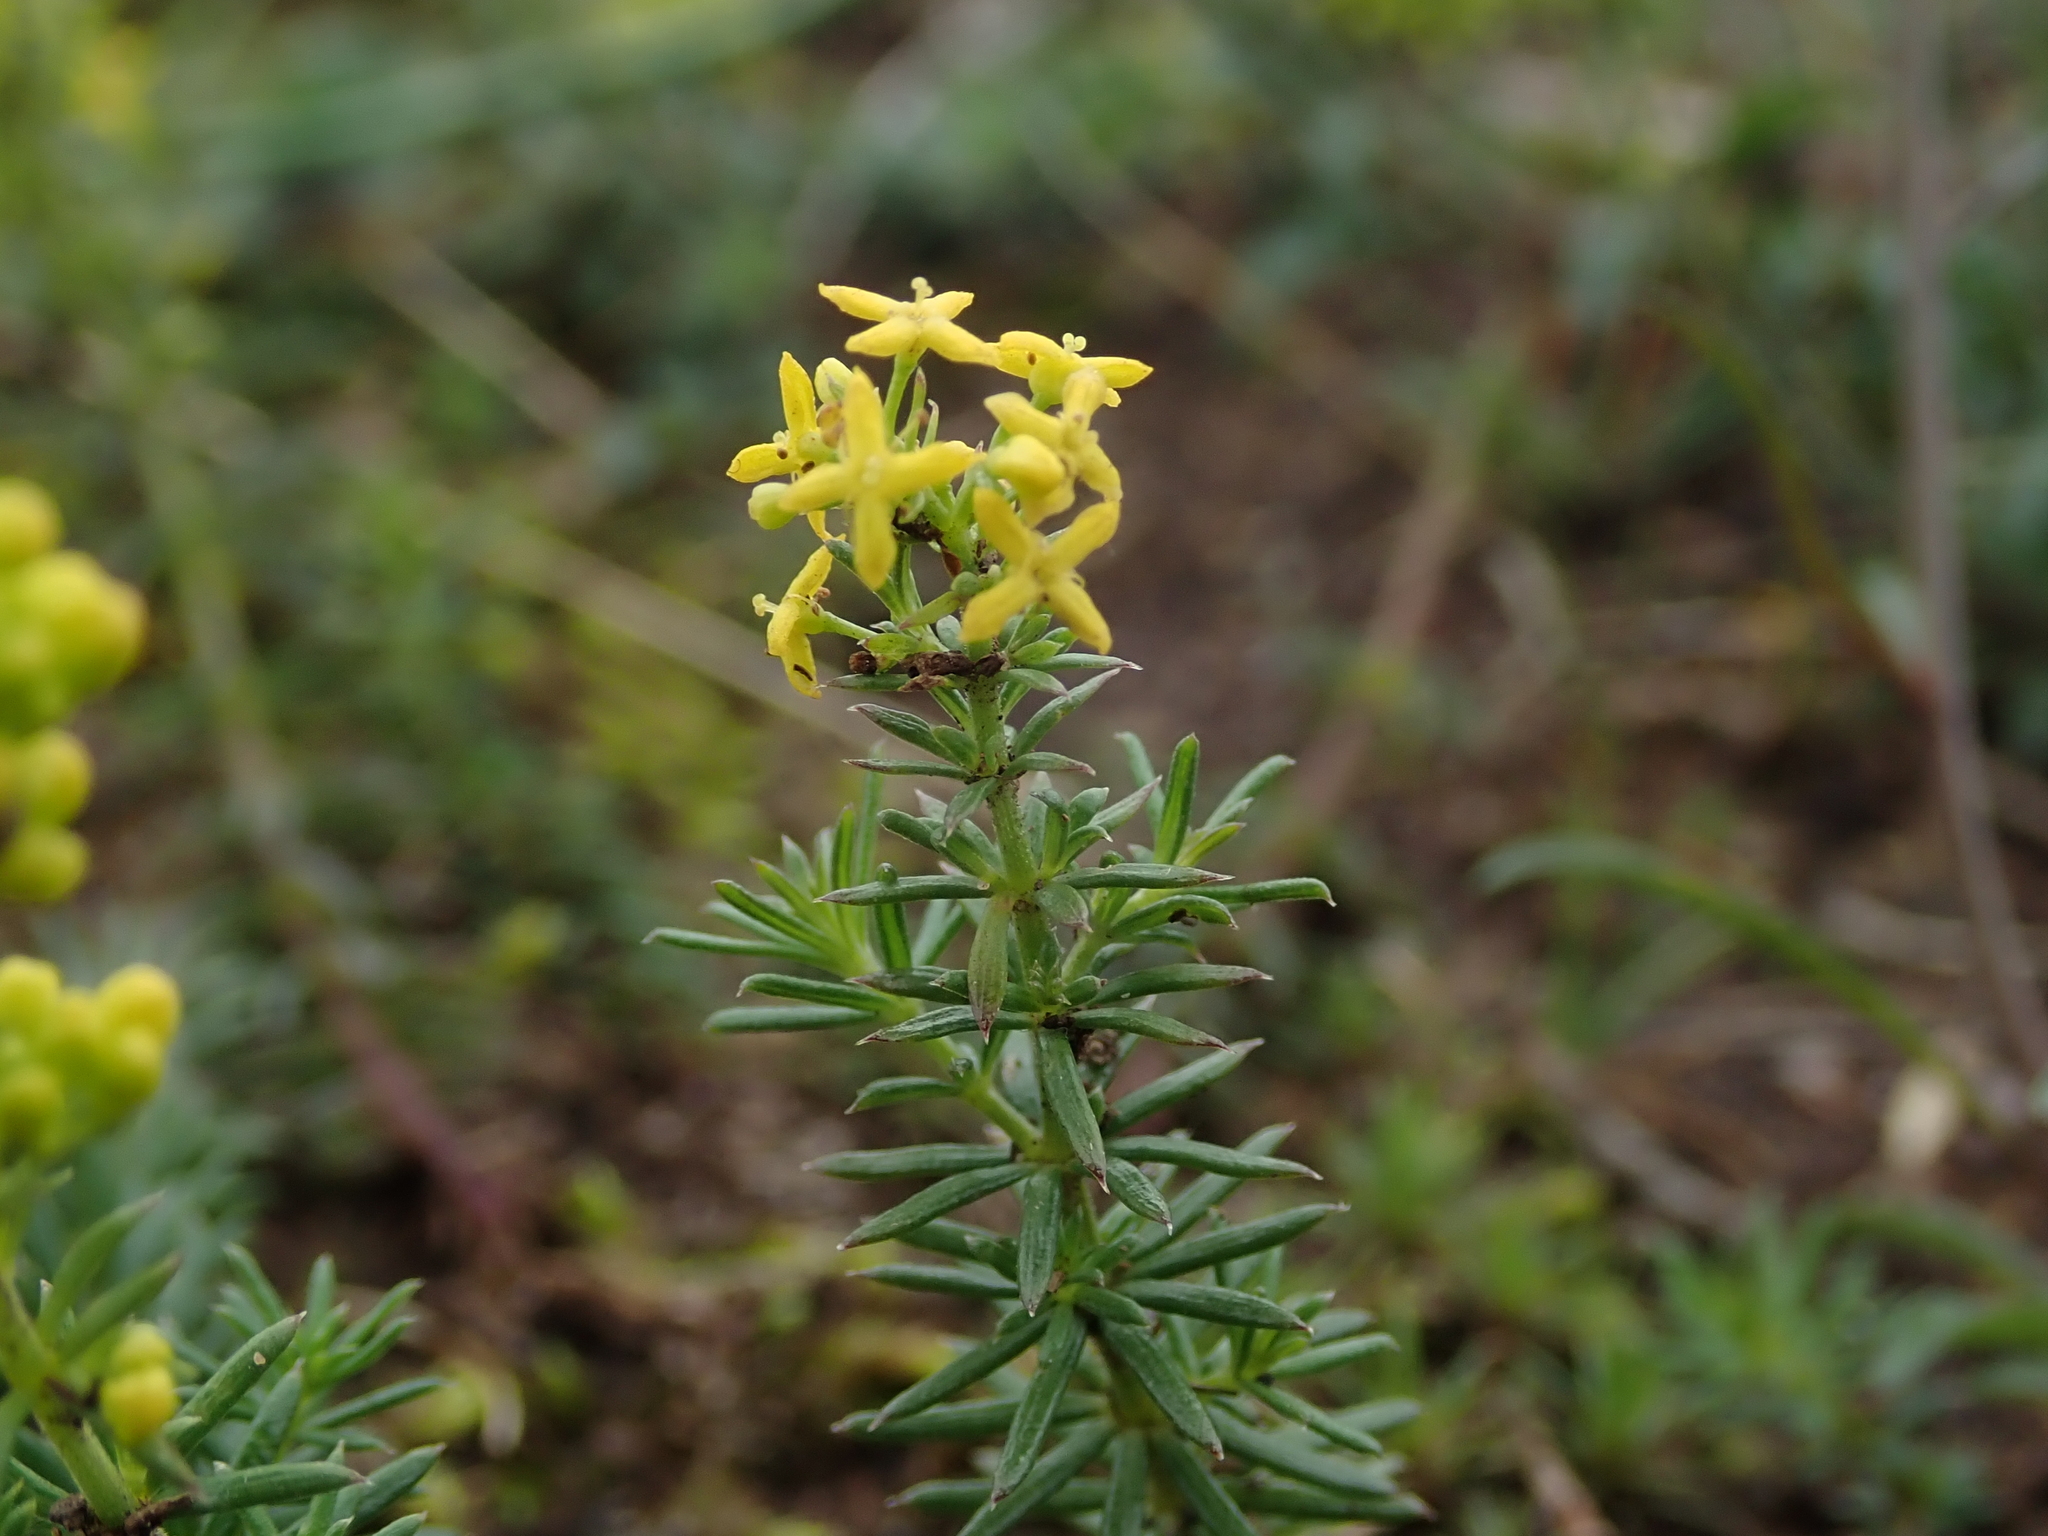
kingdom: Plantae
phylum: Tracheophyta
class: Magnoliopsida
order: Gentianales
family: Rubiaceae
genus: Galium
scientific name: Galium verum
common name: Lady's bedstraw
